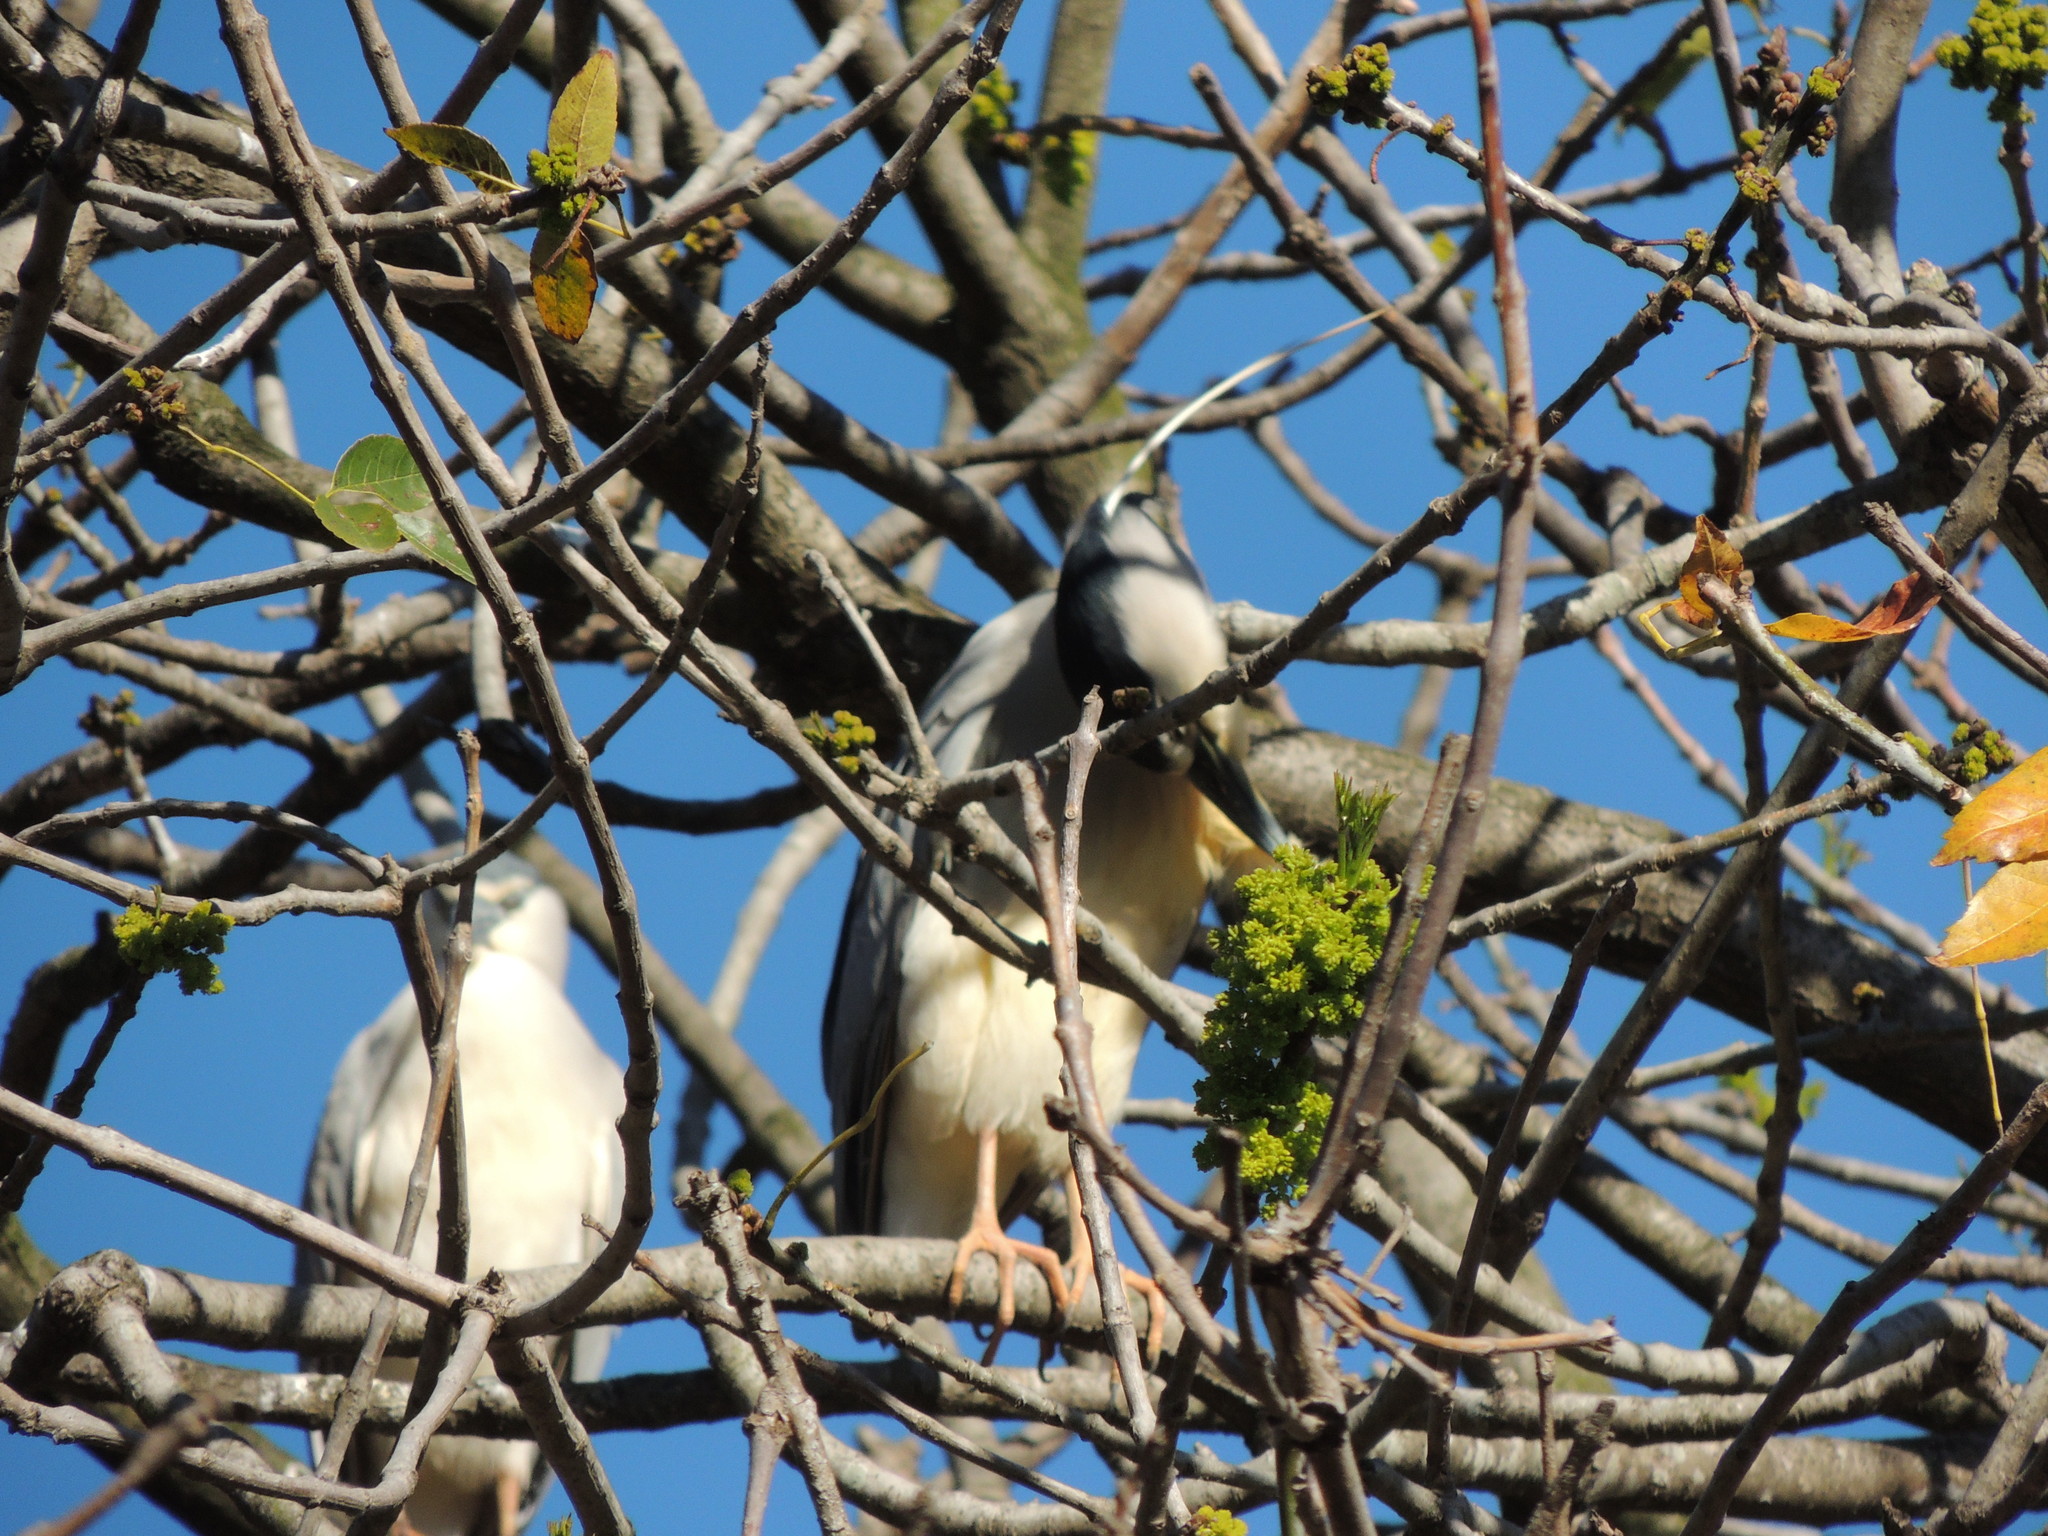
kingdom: Animalia
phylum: Chordata
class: Aves
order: Pelecaniformes
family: Ardeidae
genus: Nycticorax
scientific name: Nycticorax nycticorax
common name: Black-crowned night heron
